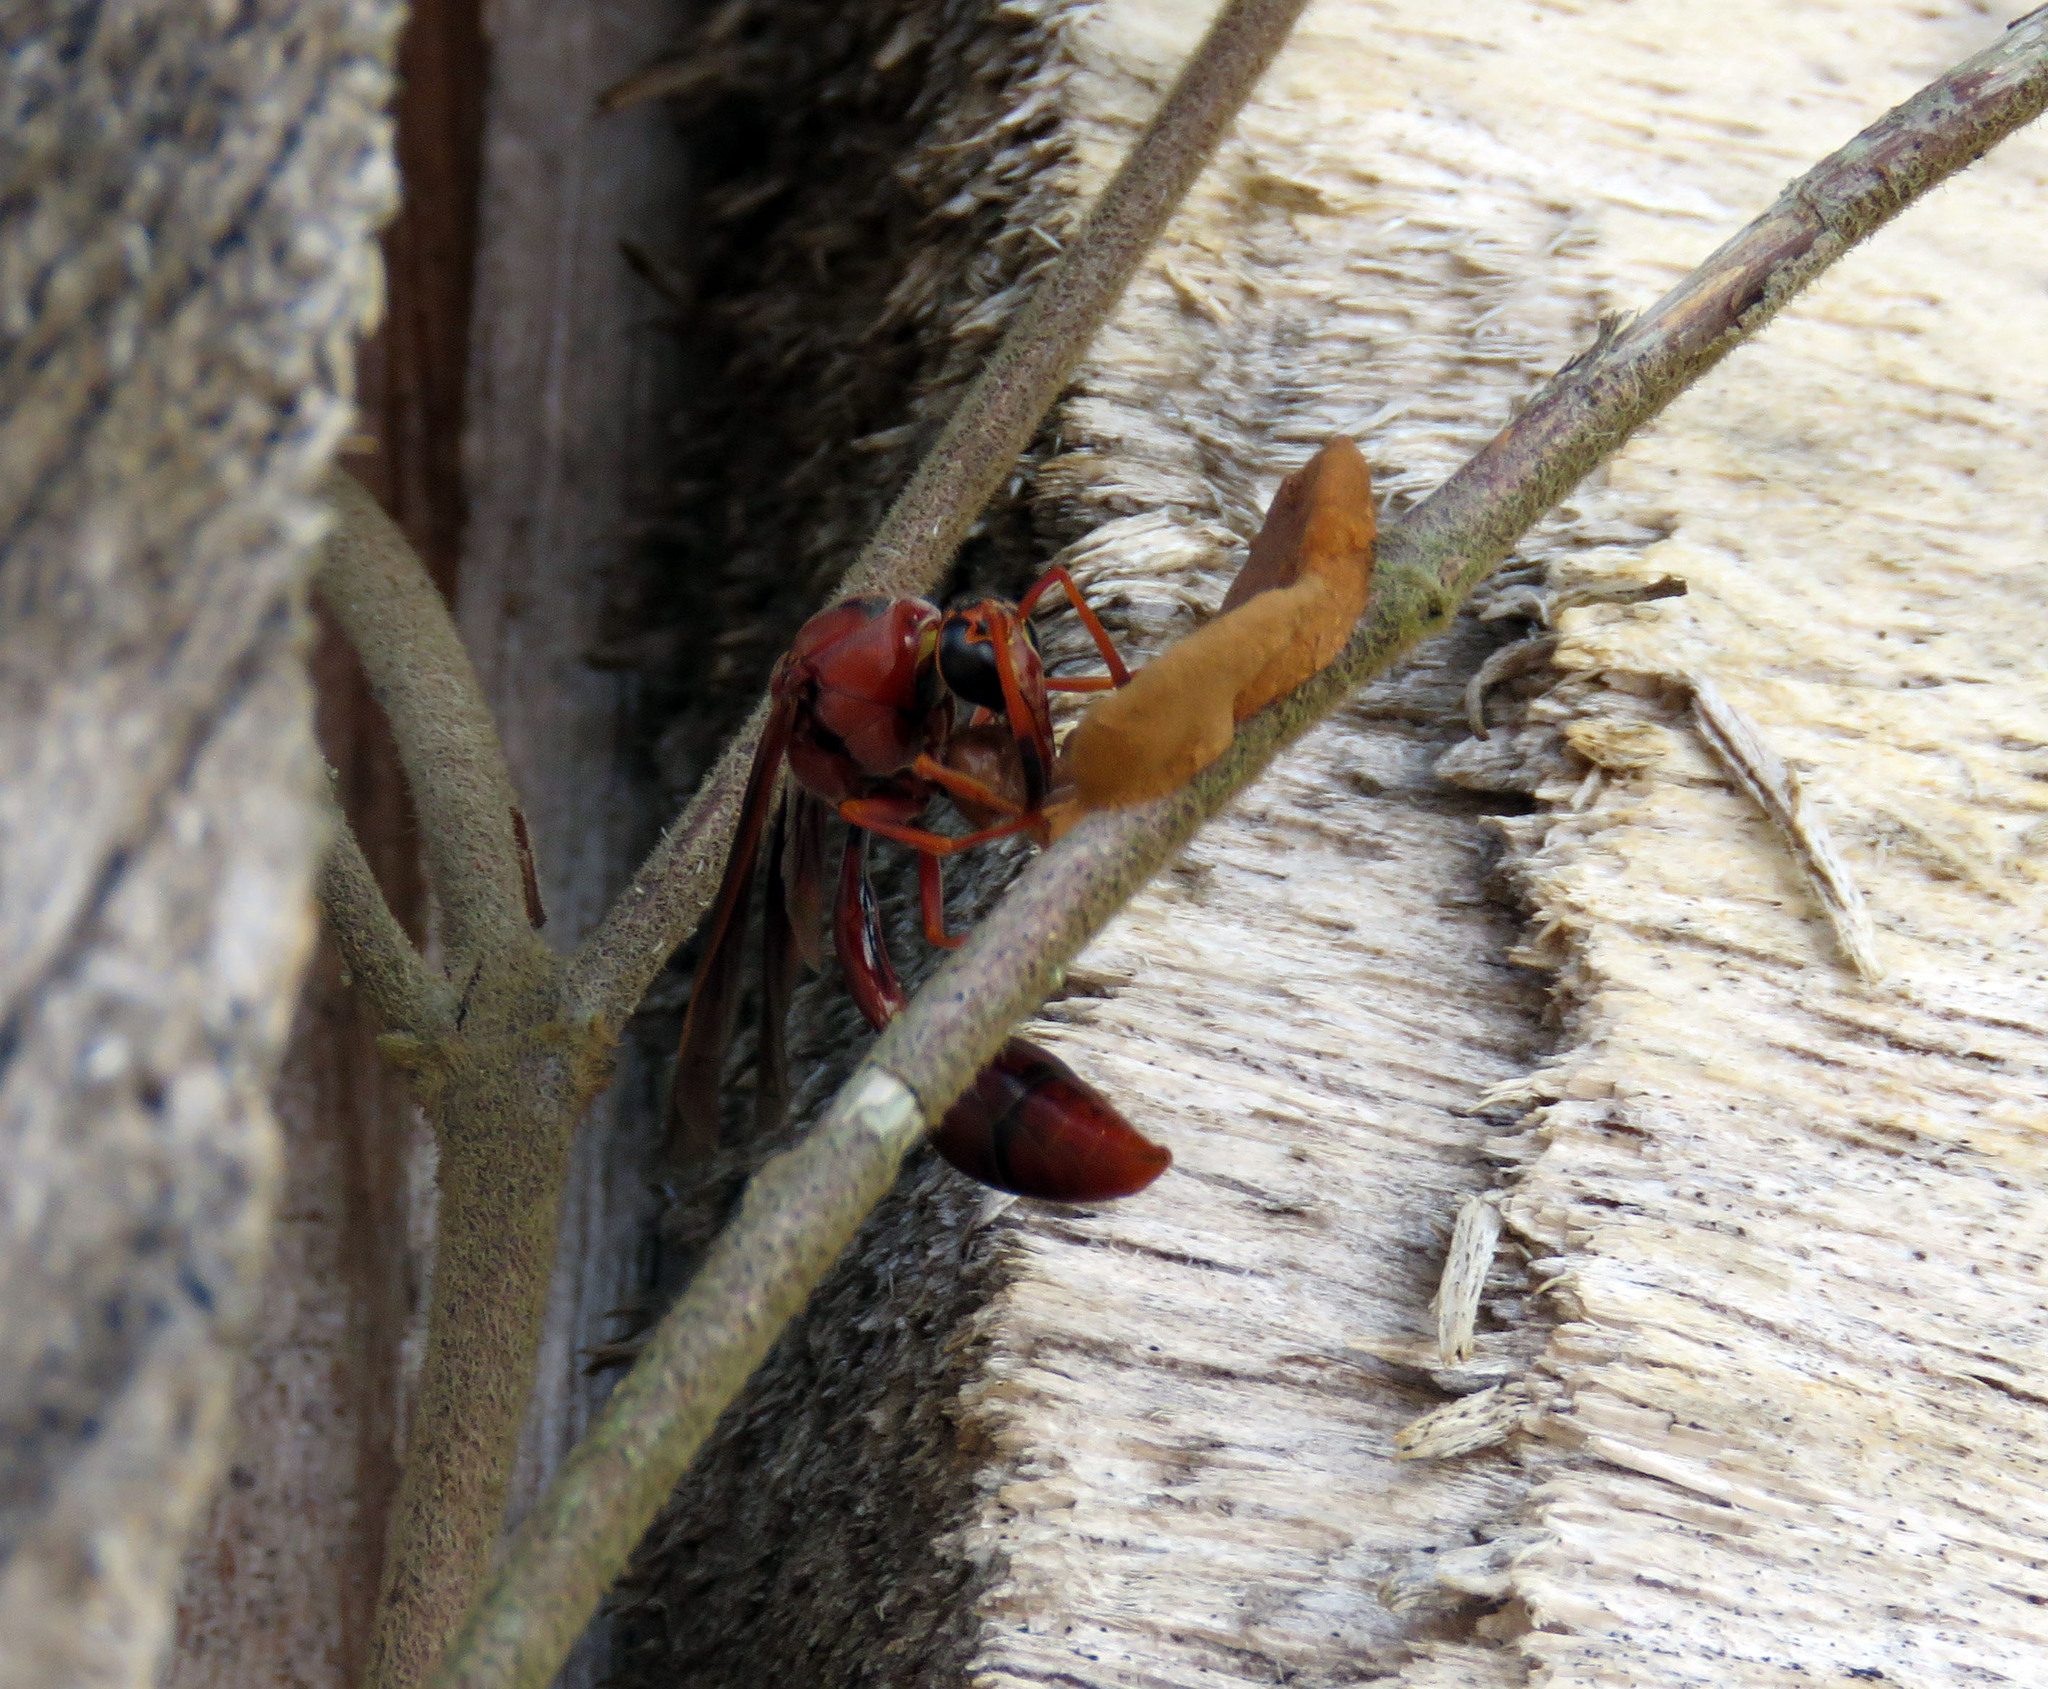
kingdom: Animalia
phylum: Arthropoda
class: Insecta
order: Hymenoptera
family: Eumenidae
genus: Zeta
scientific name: Zeta argillaceum
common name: Potter wasp
